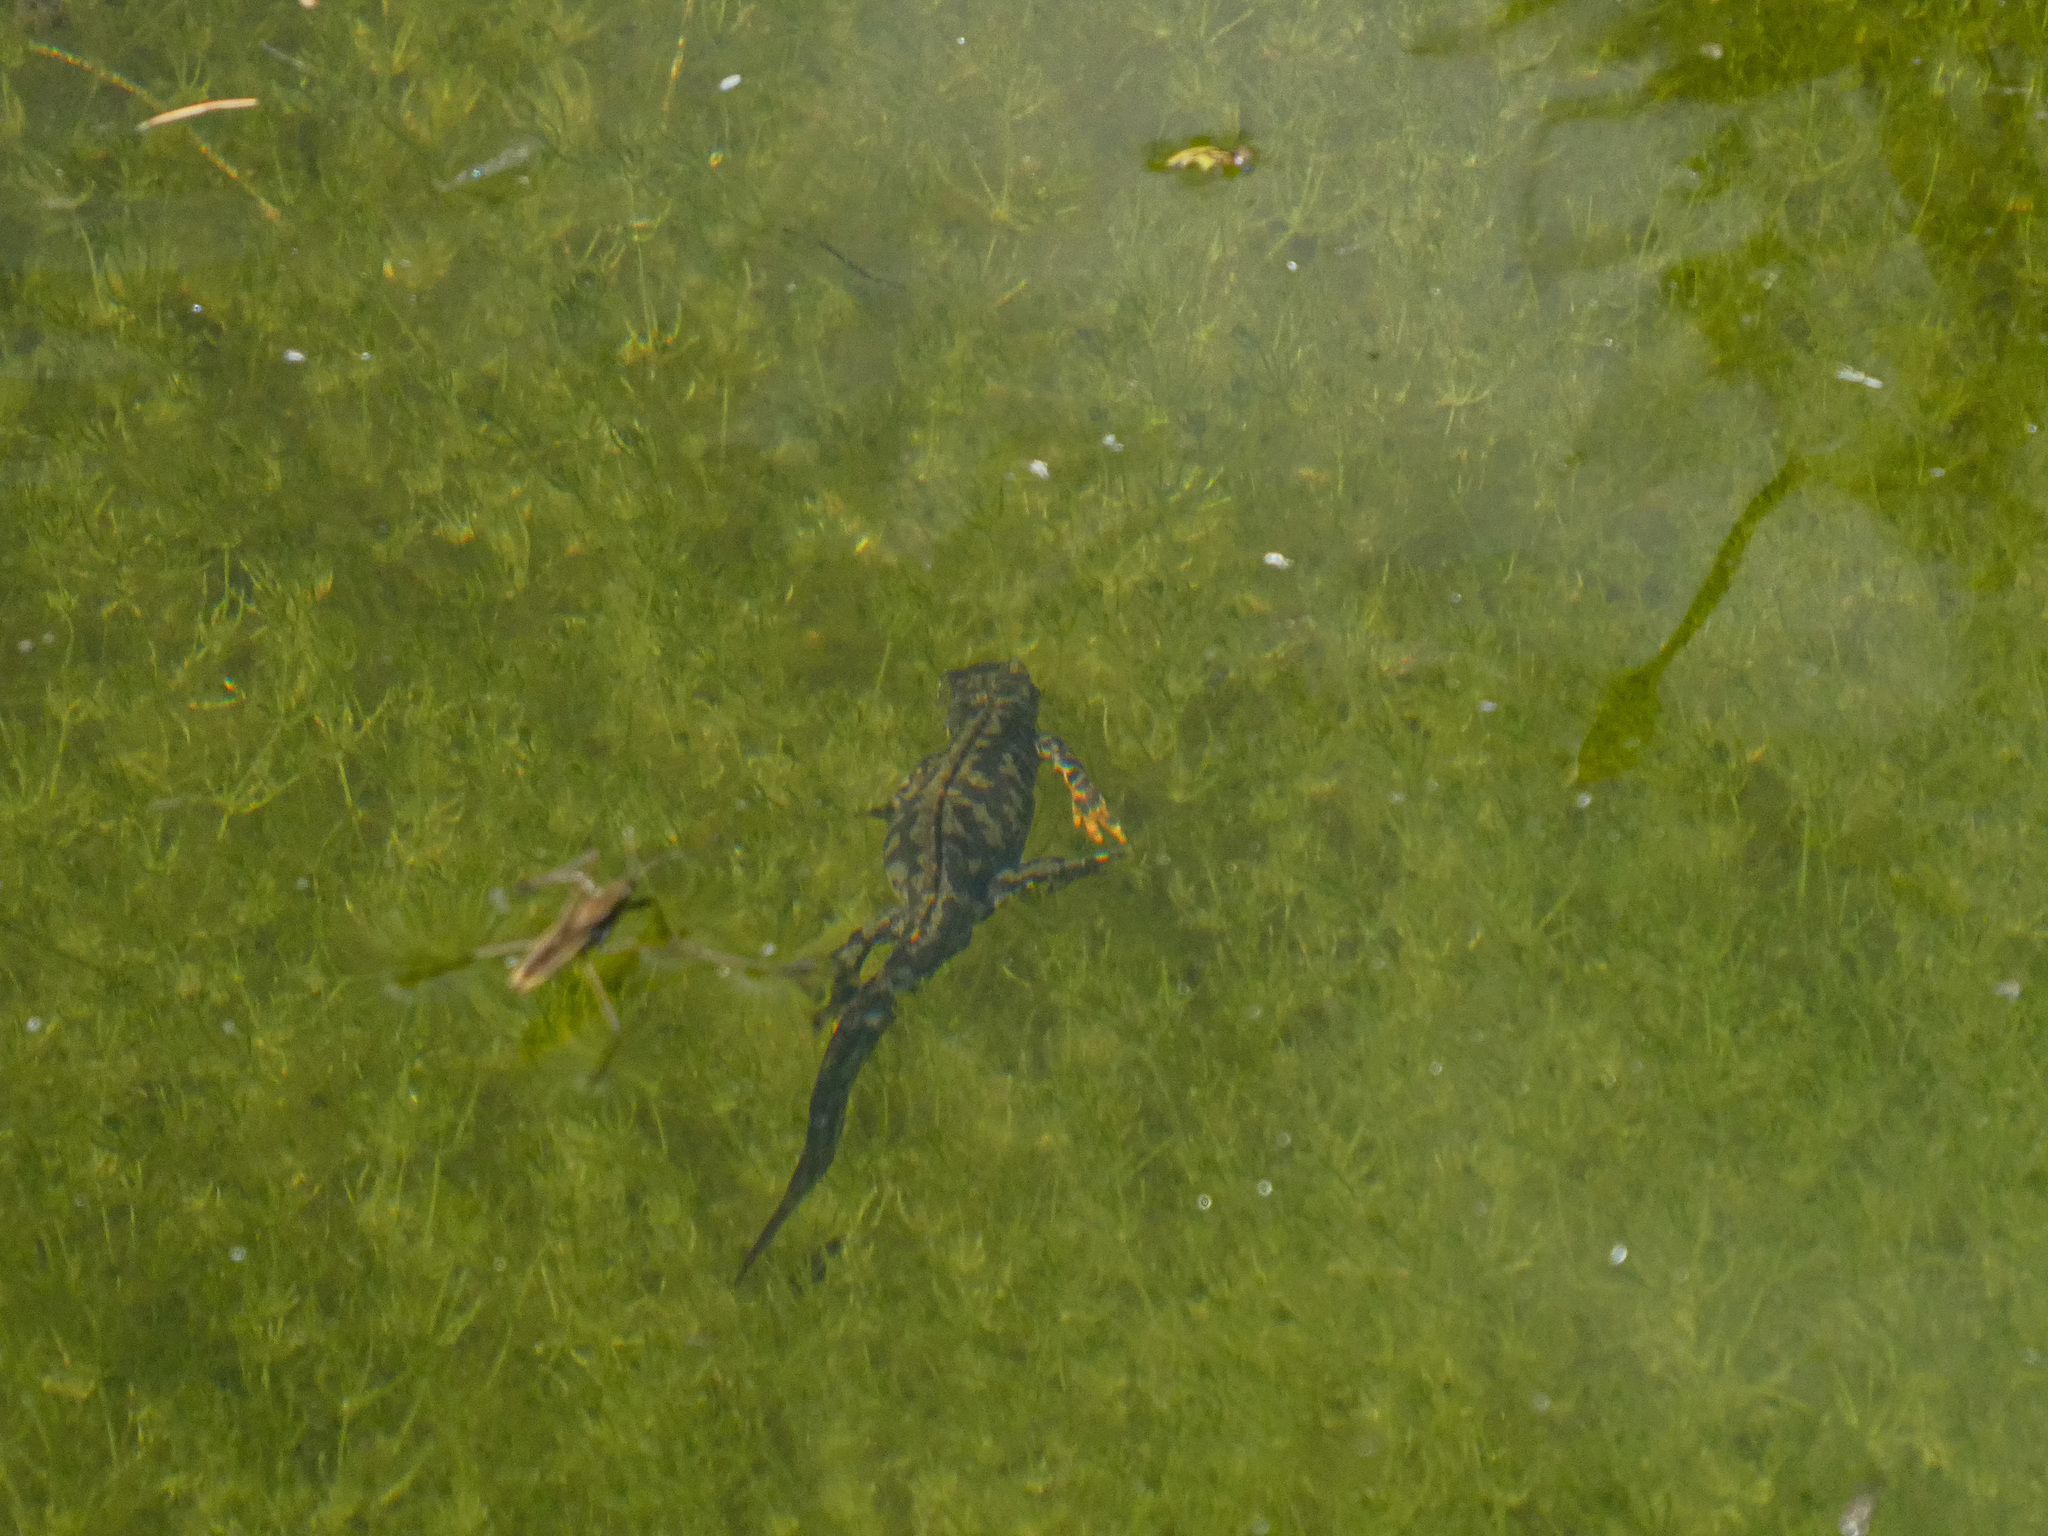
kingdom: Animalia
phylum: Chordata
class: Amphibia
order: Caudata
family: Salamandridae
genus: Ichthyosaura
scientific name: Ichthyosaura alpestris
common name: Alpine newt
